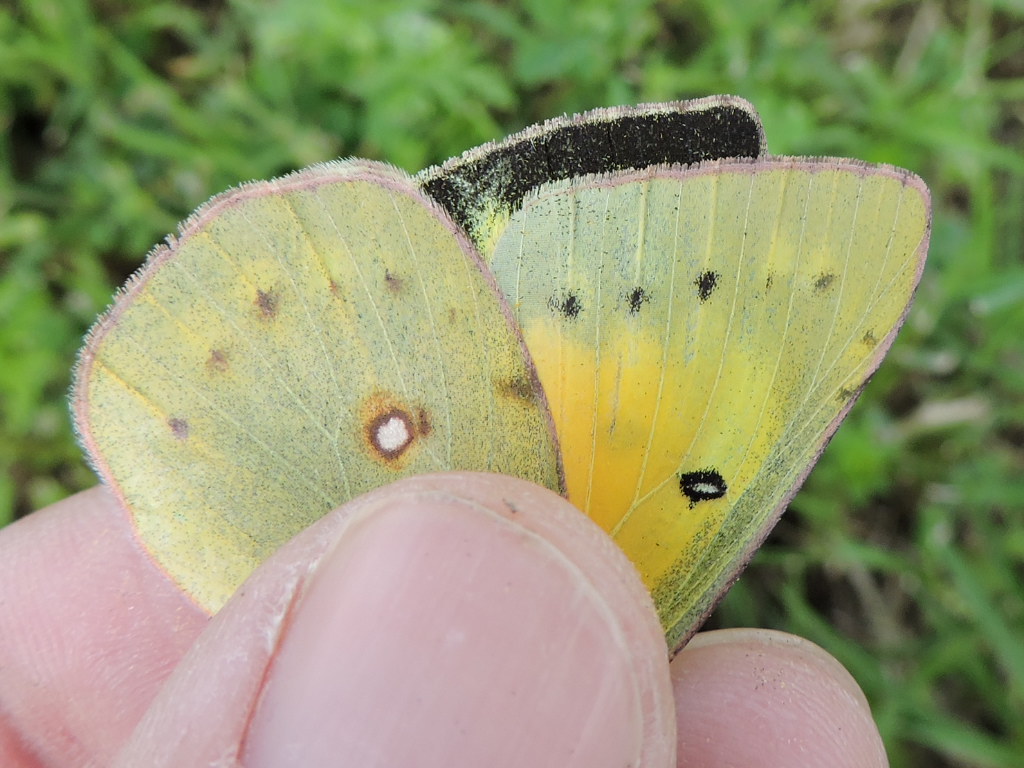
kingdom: Animalia
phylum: Arthropoda
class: Insecta
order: Lepidoptera
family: Pieridae
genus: Colias
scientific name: Colias eurytheme
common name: Alfalfa butterfly
